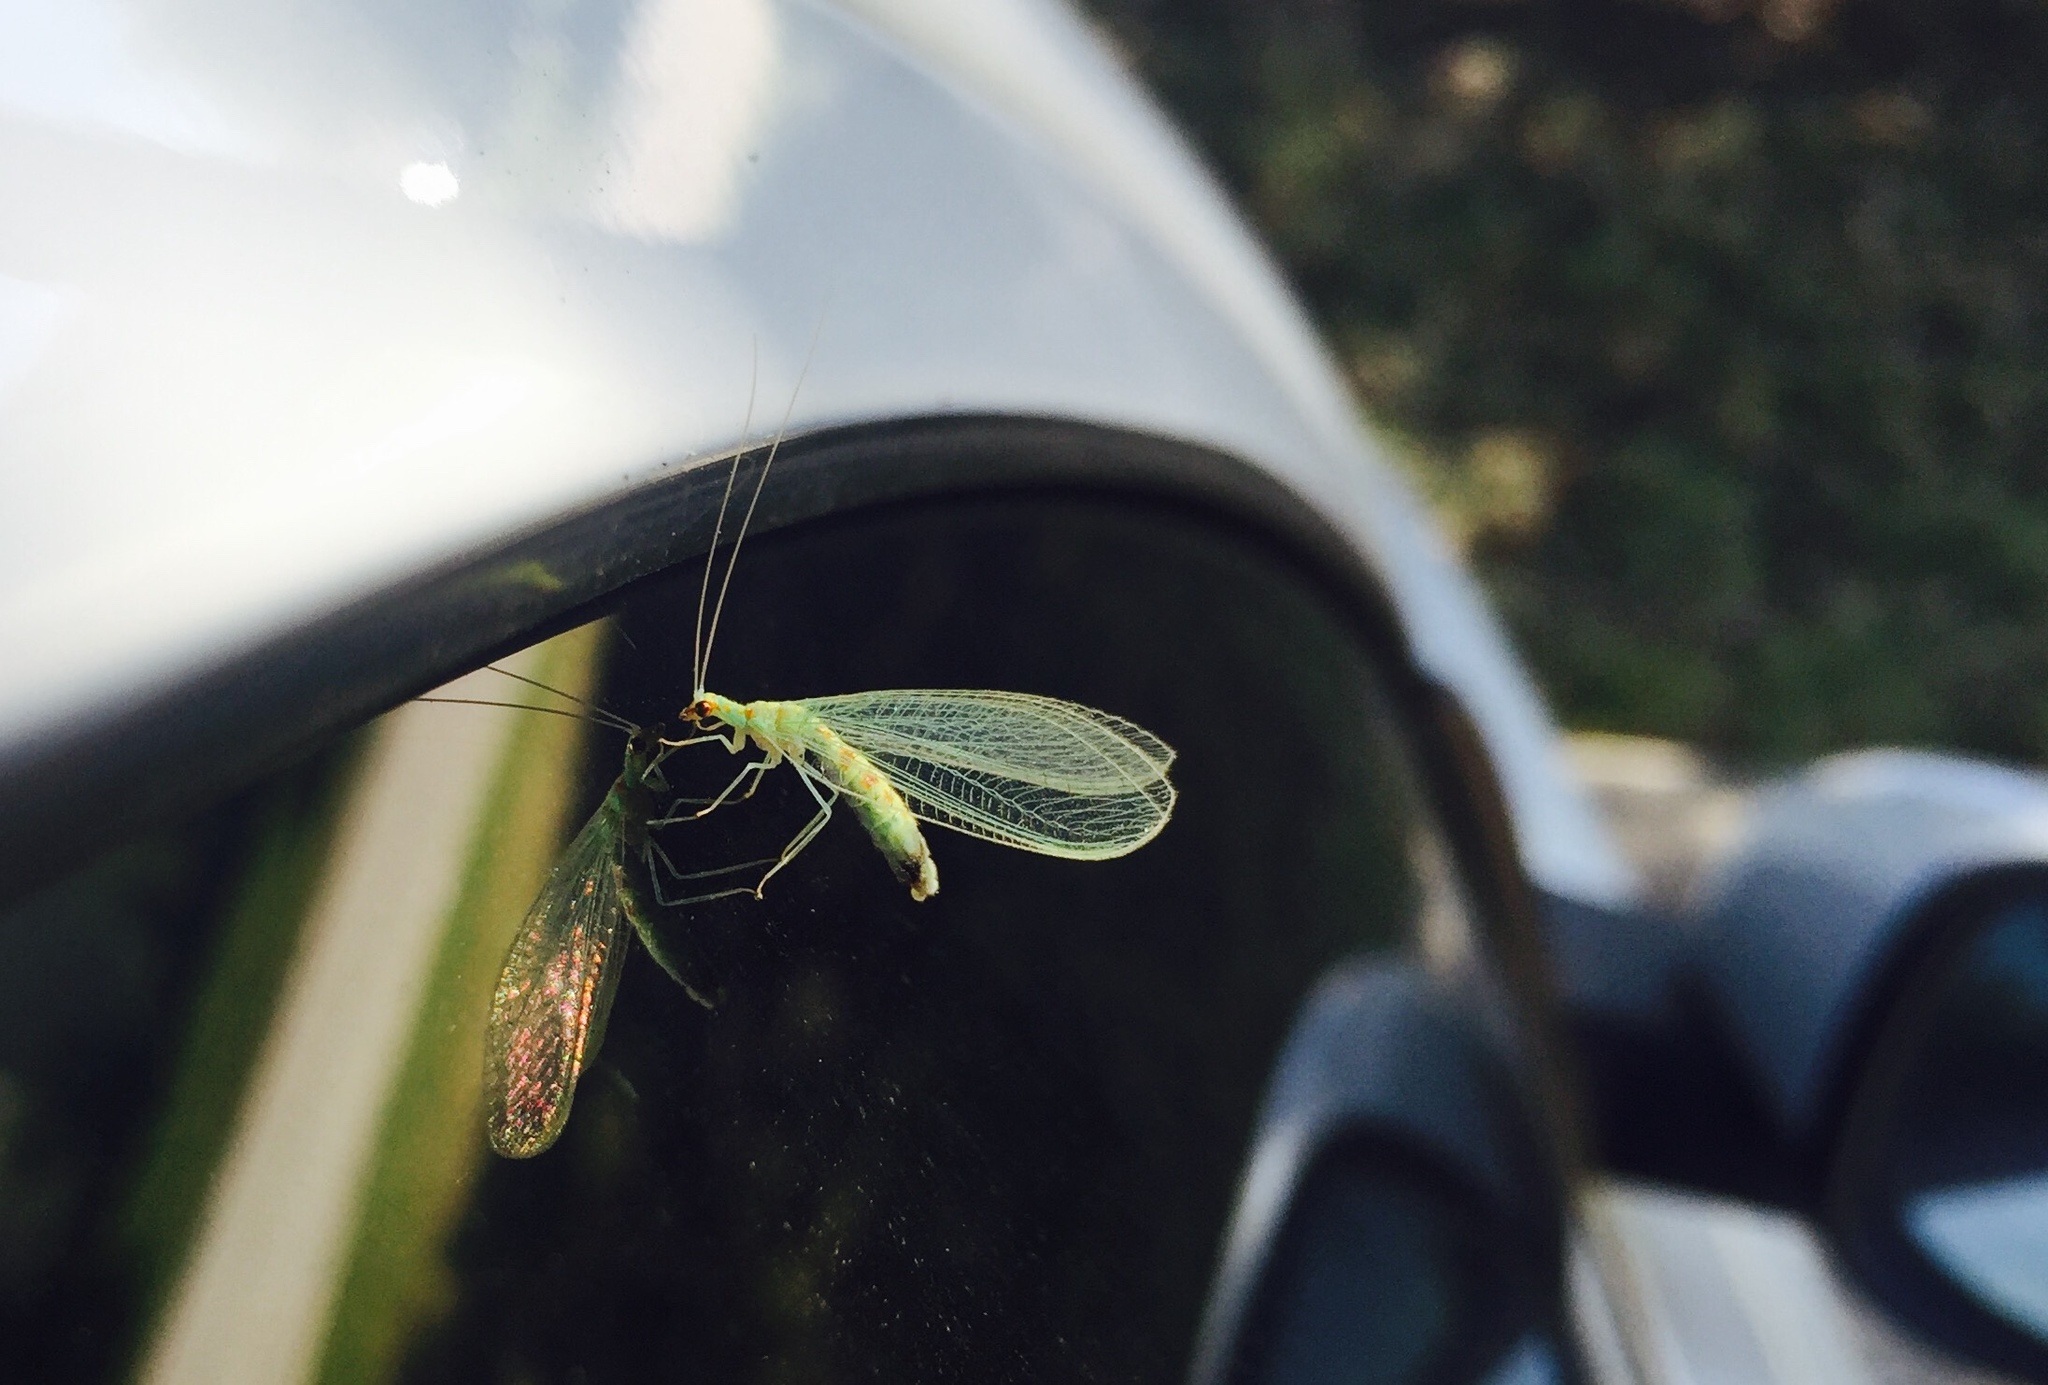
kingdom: Animalia
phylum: Arthropoda
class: Insecta
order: Neuroptera
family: Chrysopidae
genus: Chrysopa
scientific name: Chrysopa quadripunctata
